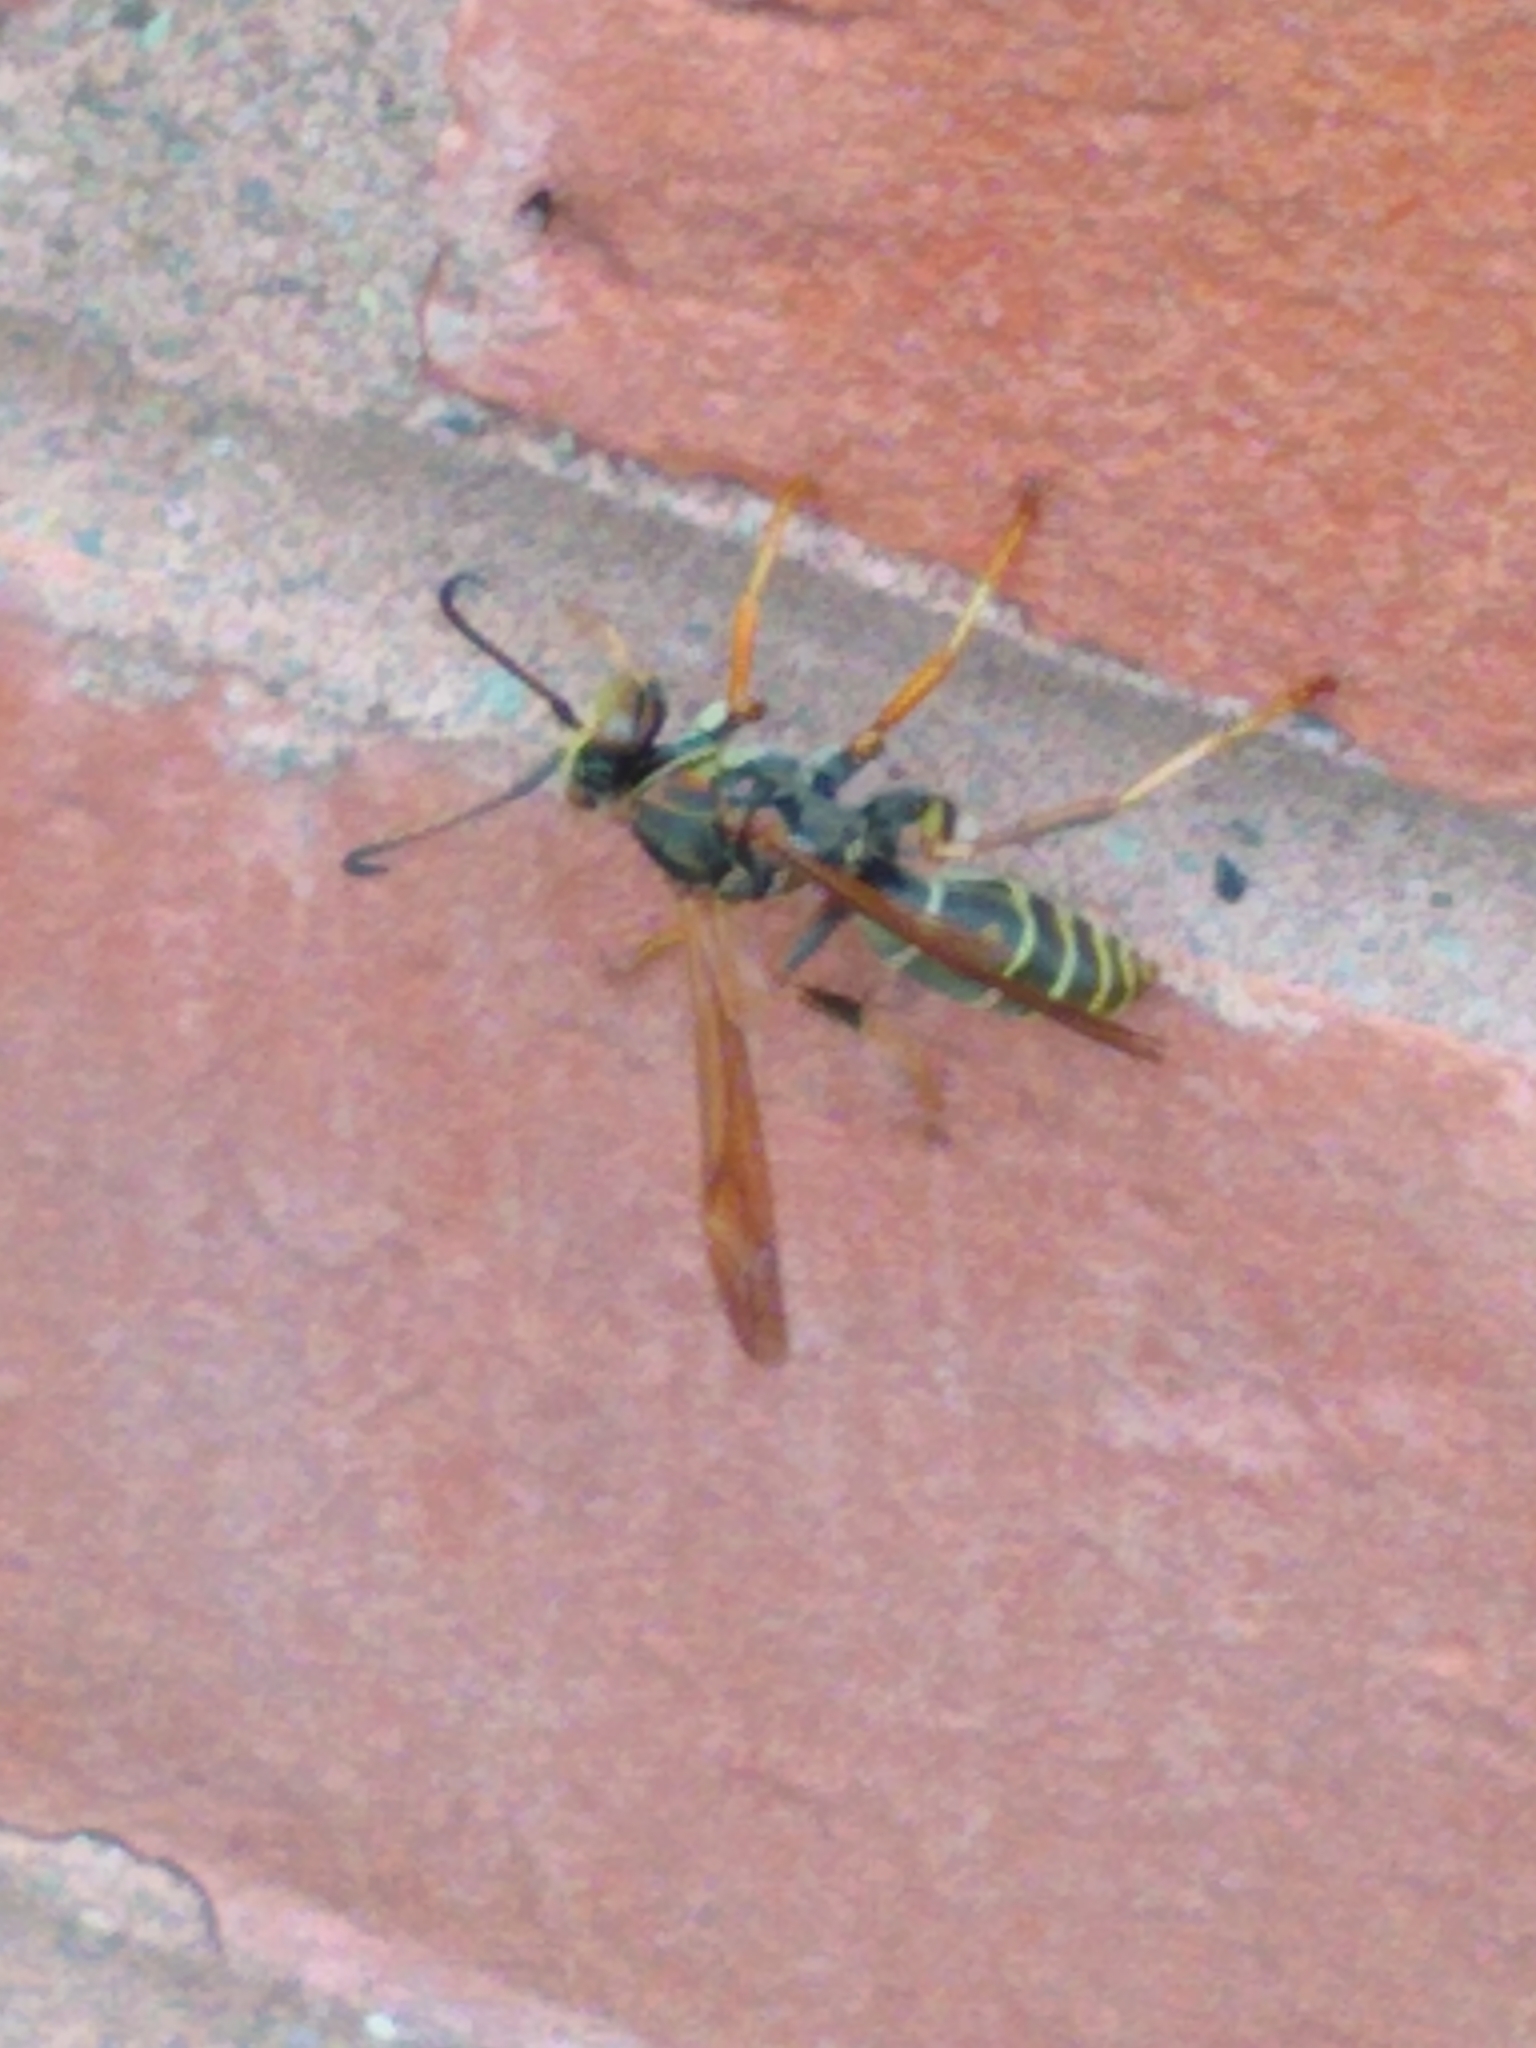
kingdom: Animalia
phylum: Arthropoda
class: Insecta
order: Hymenoptera
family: Eumenidae
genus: Polistes
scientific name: Polistes fuscatus
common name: Dark paper wasp
